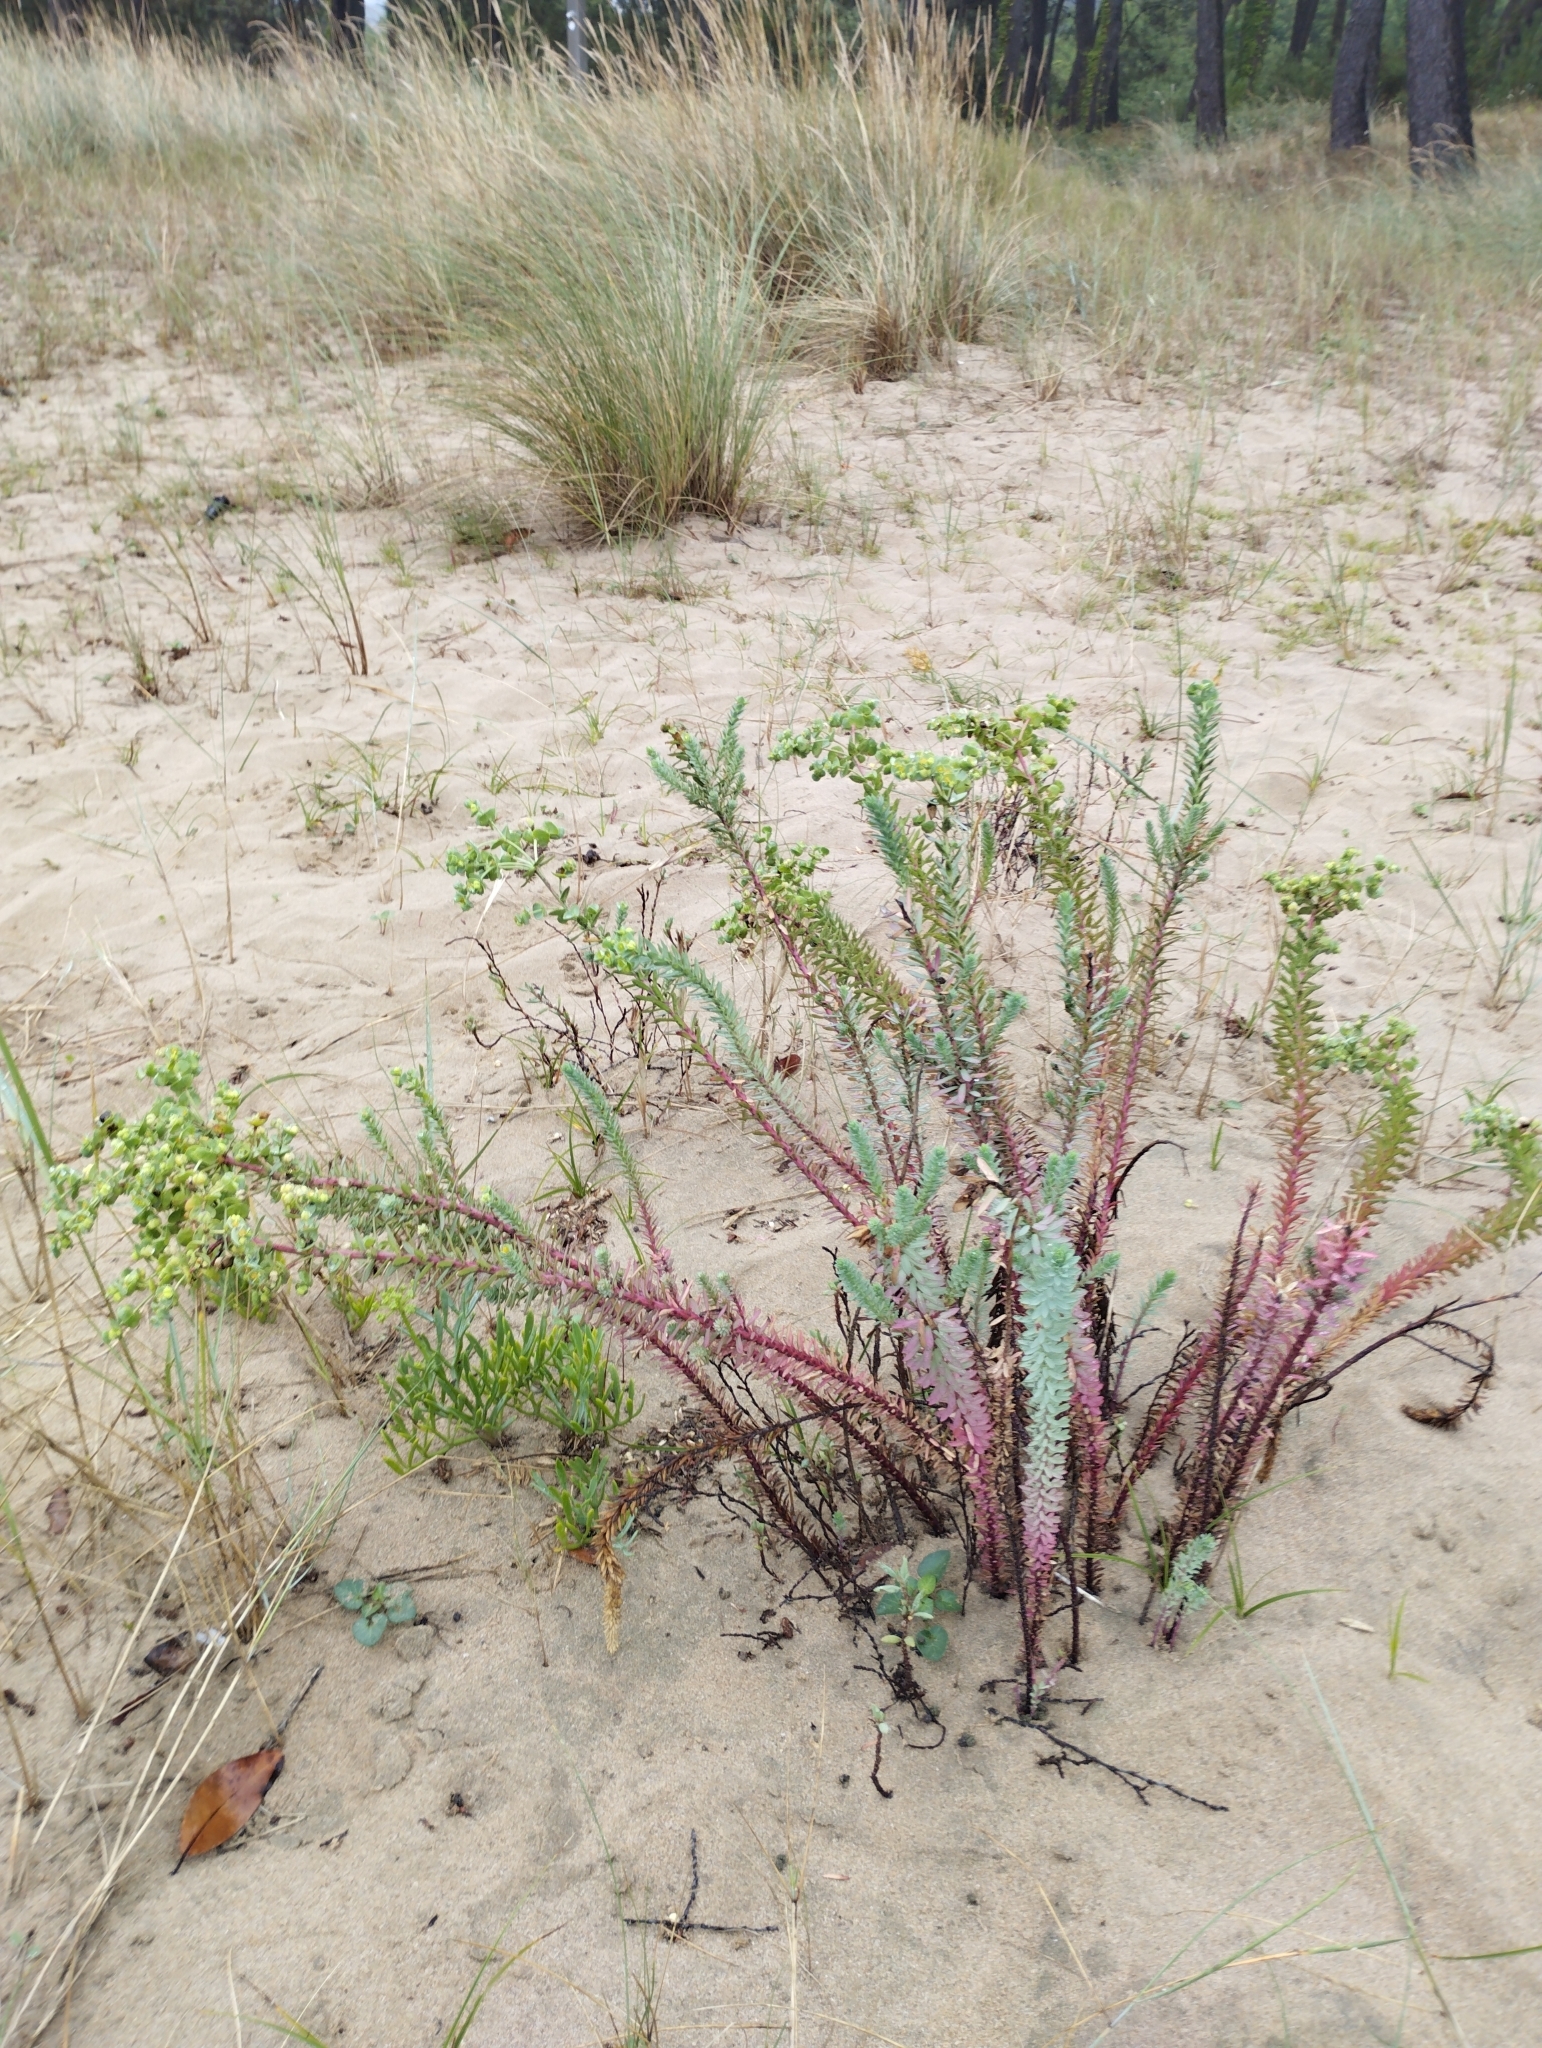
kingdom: Plantae
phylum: Tracheophyta
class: Magnoliopsida
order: Malpighiales
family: Euphorbiaceae
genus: Euphorbia
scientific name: Euphorbia paralias
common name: Sea spurge
